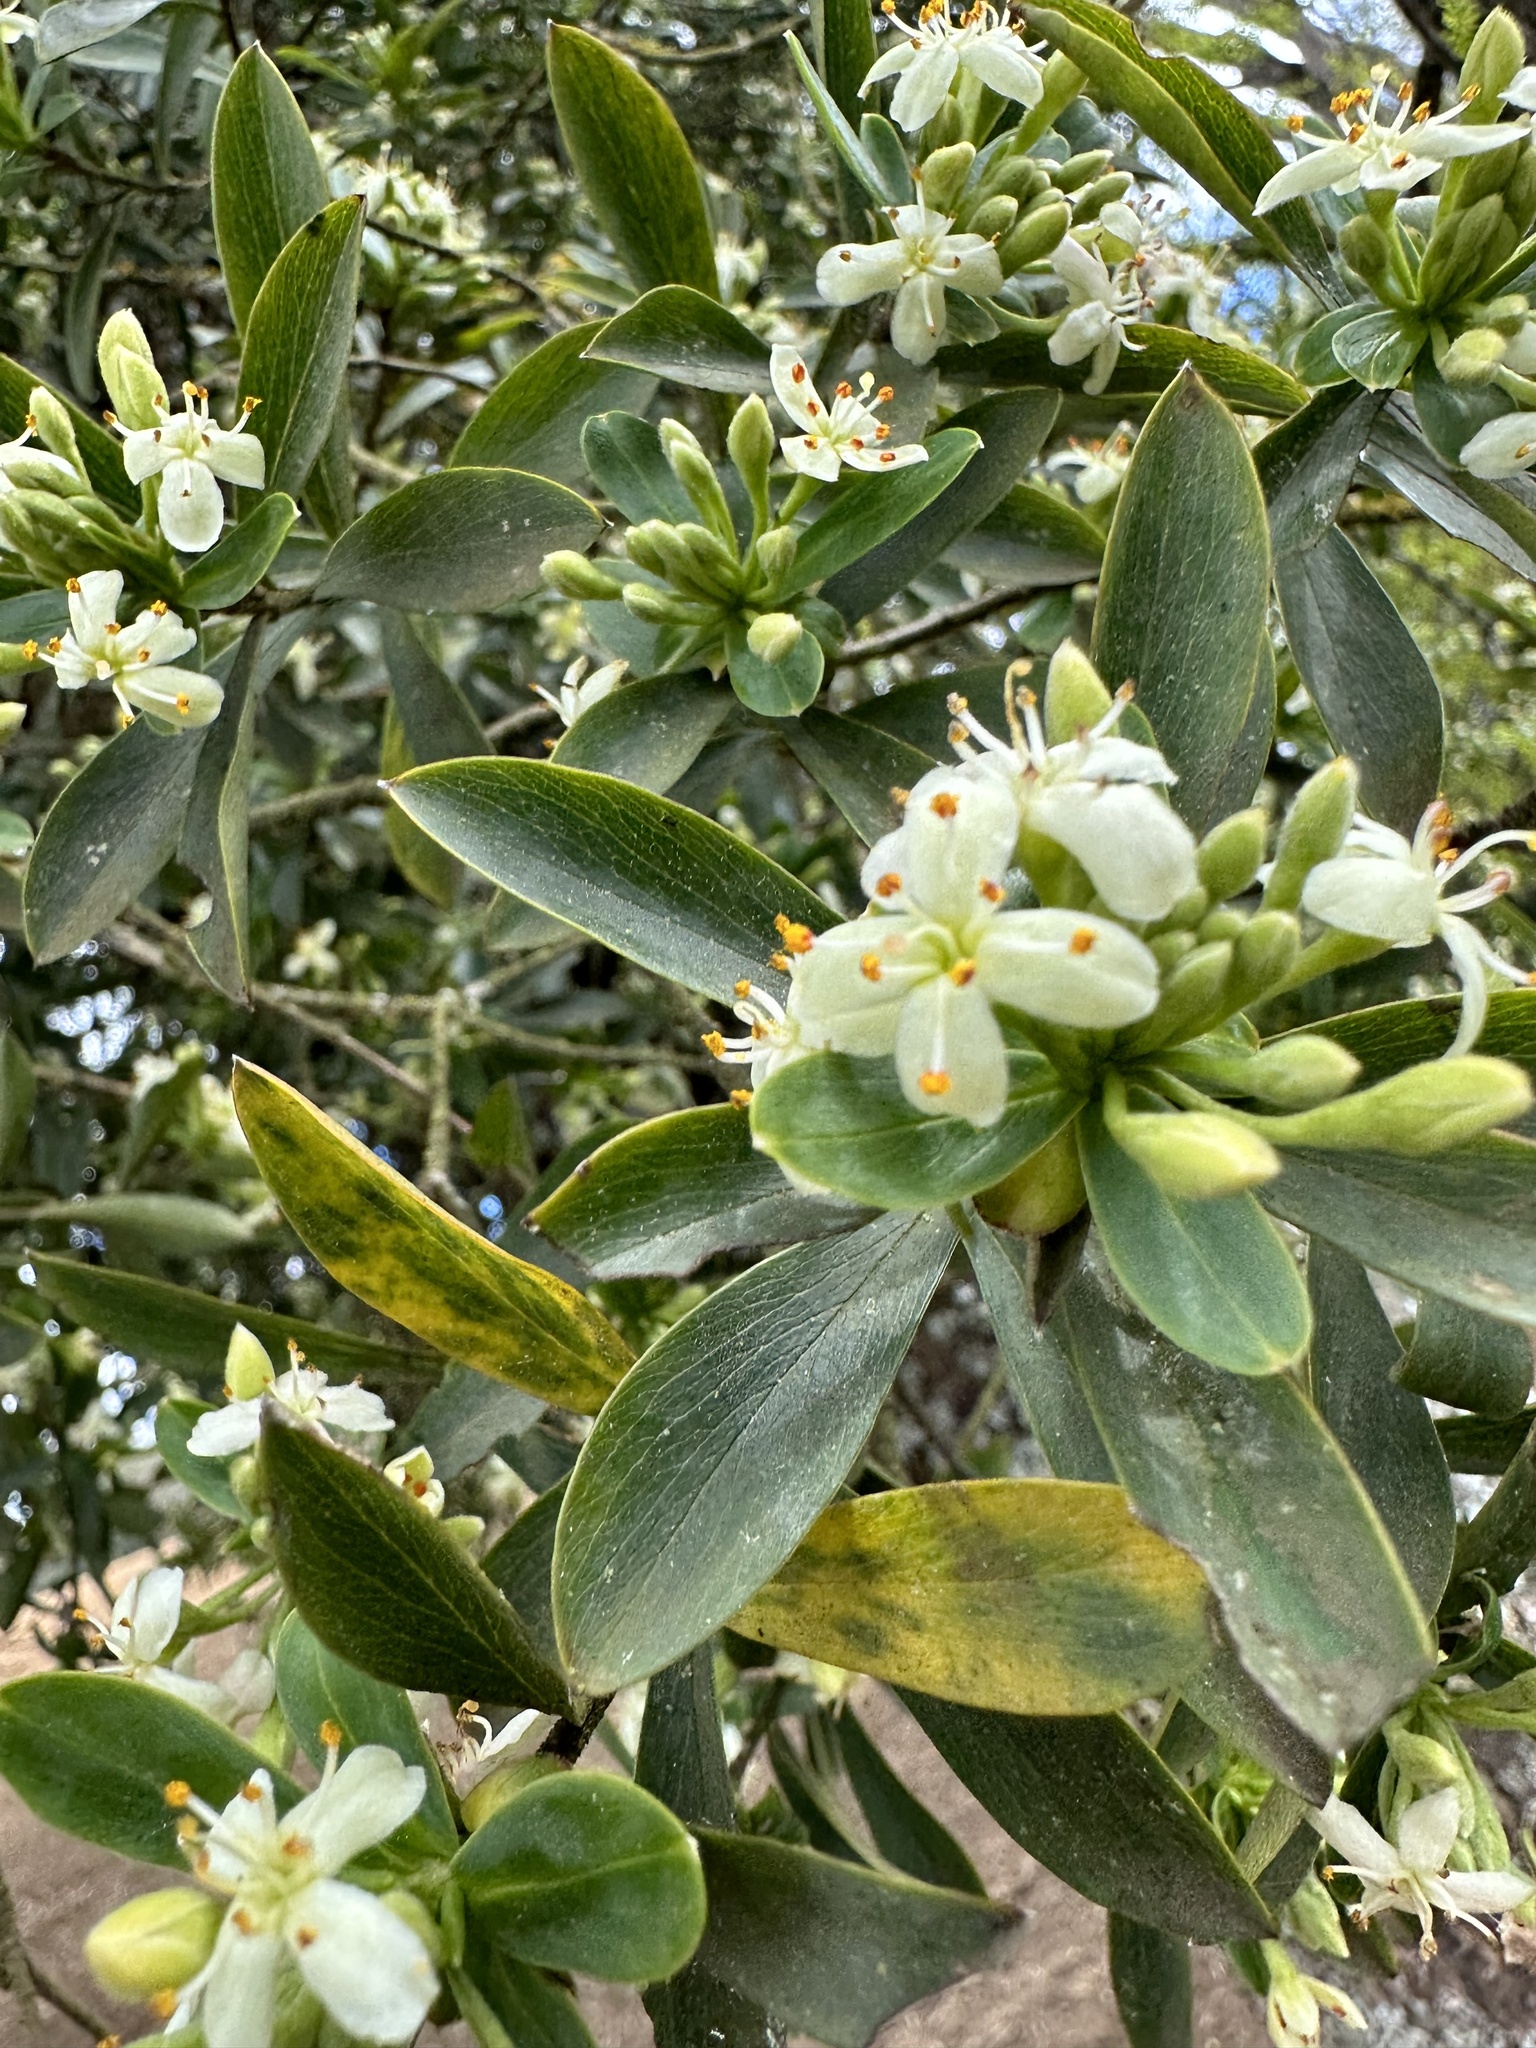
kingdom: Plantae
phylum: Tracheophyta
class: Magnoliopsida
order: Malvales
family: Thymelaeaceae
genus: Ovidia
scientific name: Ovidia andina
